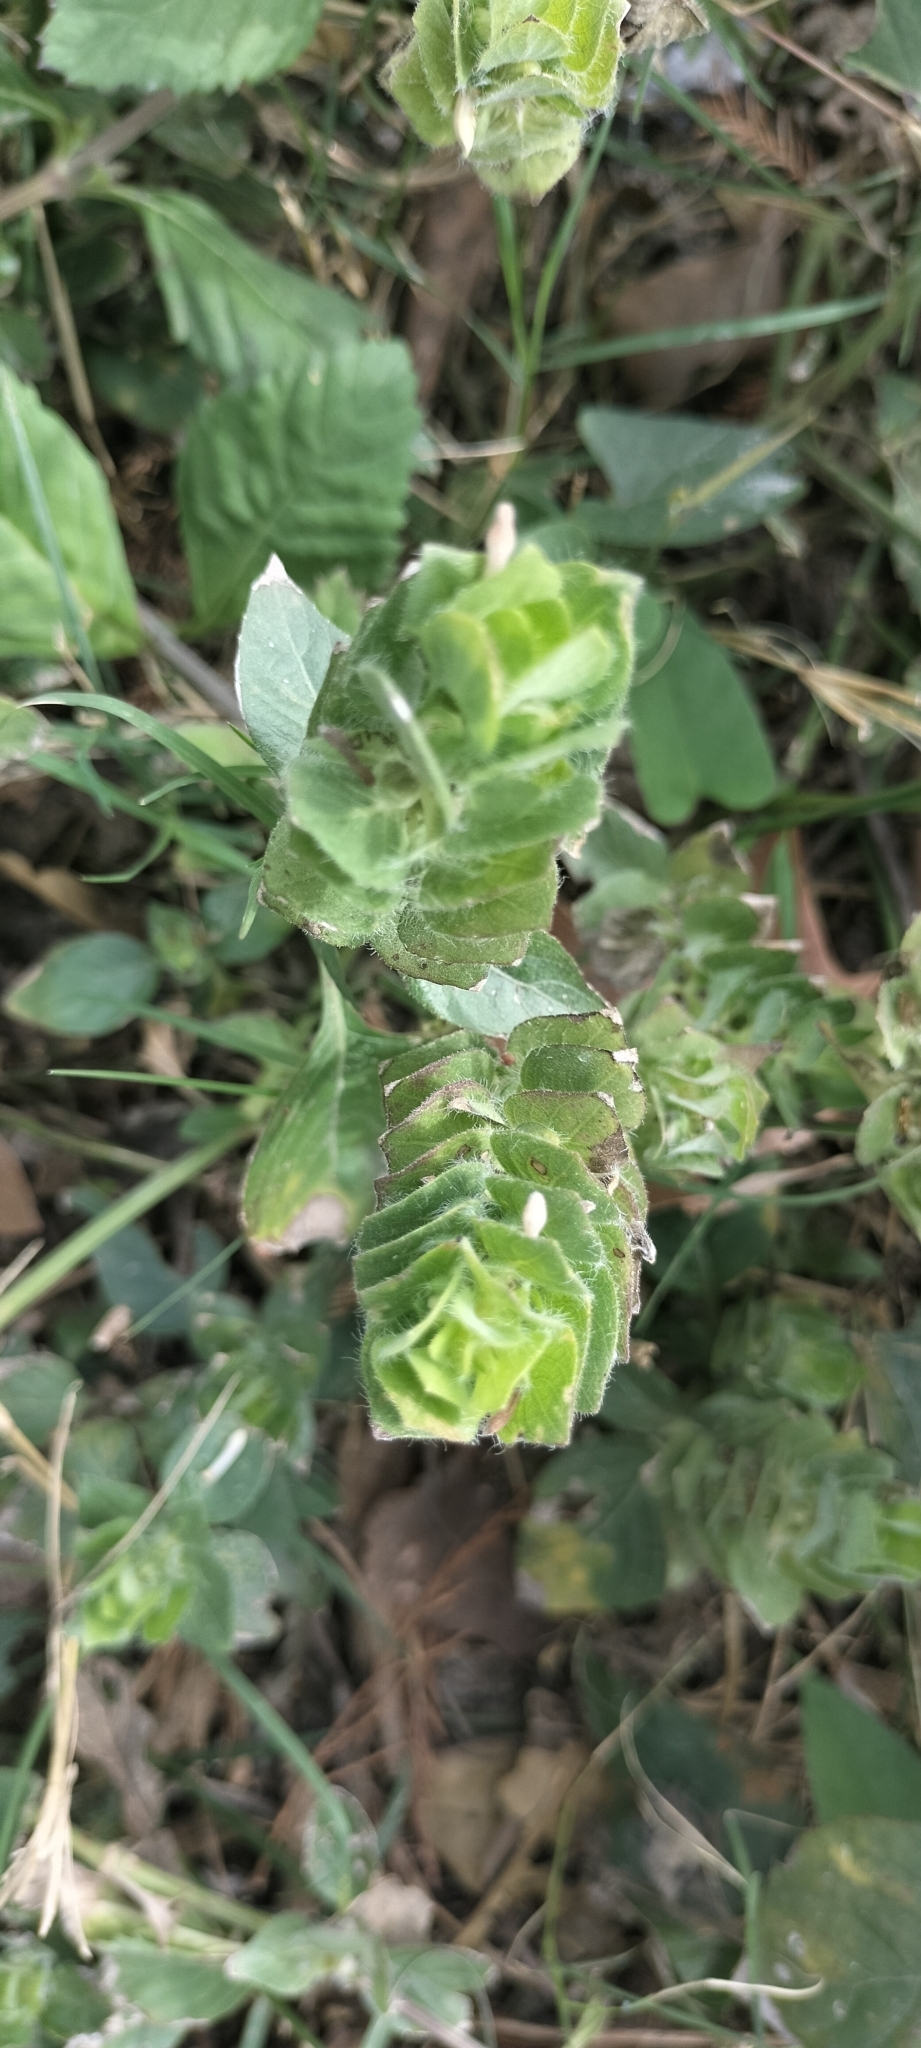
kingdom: Plantae
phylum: Tracheophyta
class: Magnoliopsida
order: Lamiales
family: Acanthaceae
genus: Ruellia
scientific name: Ruellia blechum
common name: Browne's blechum
